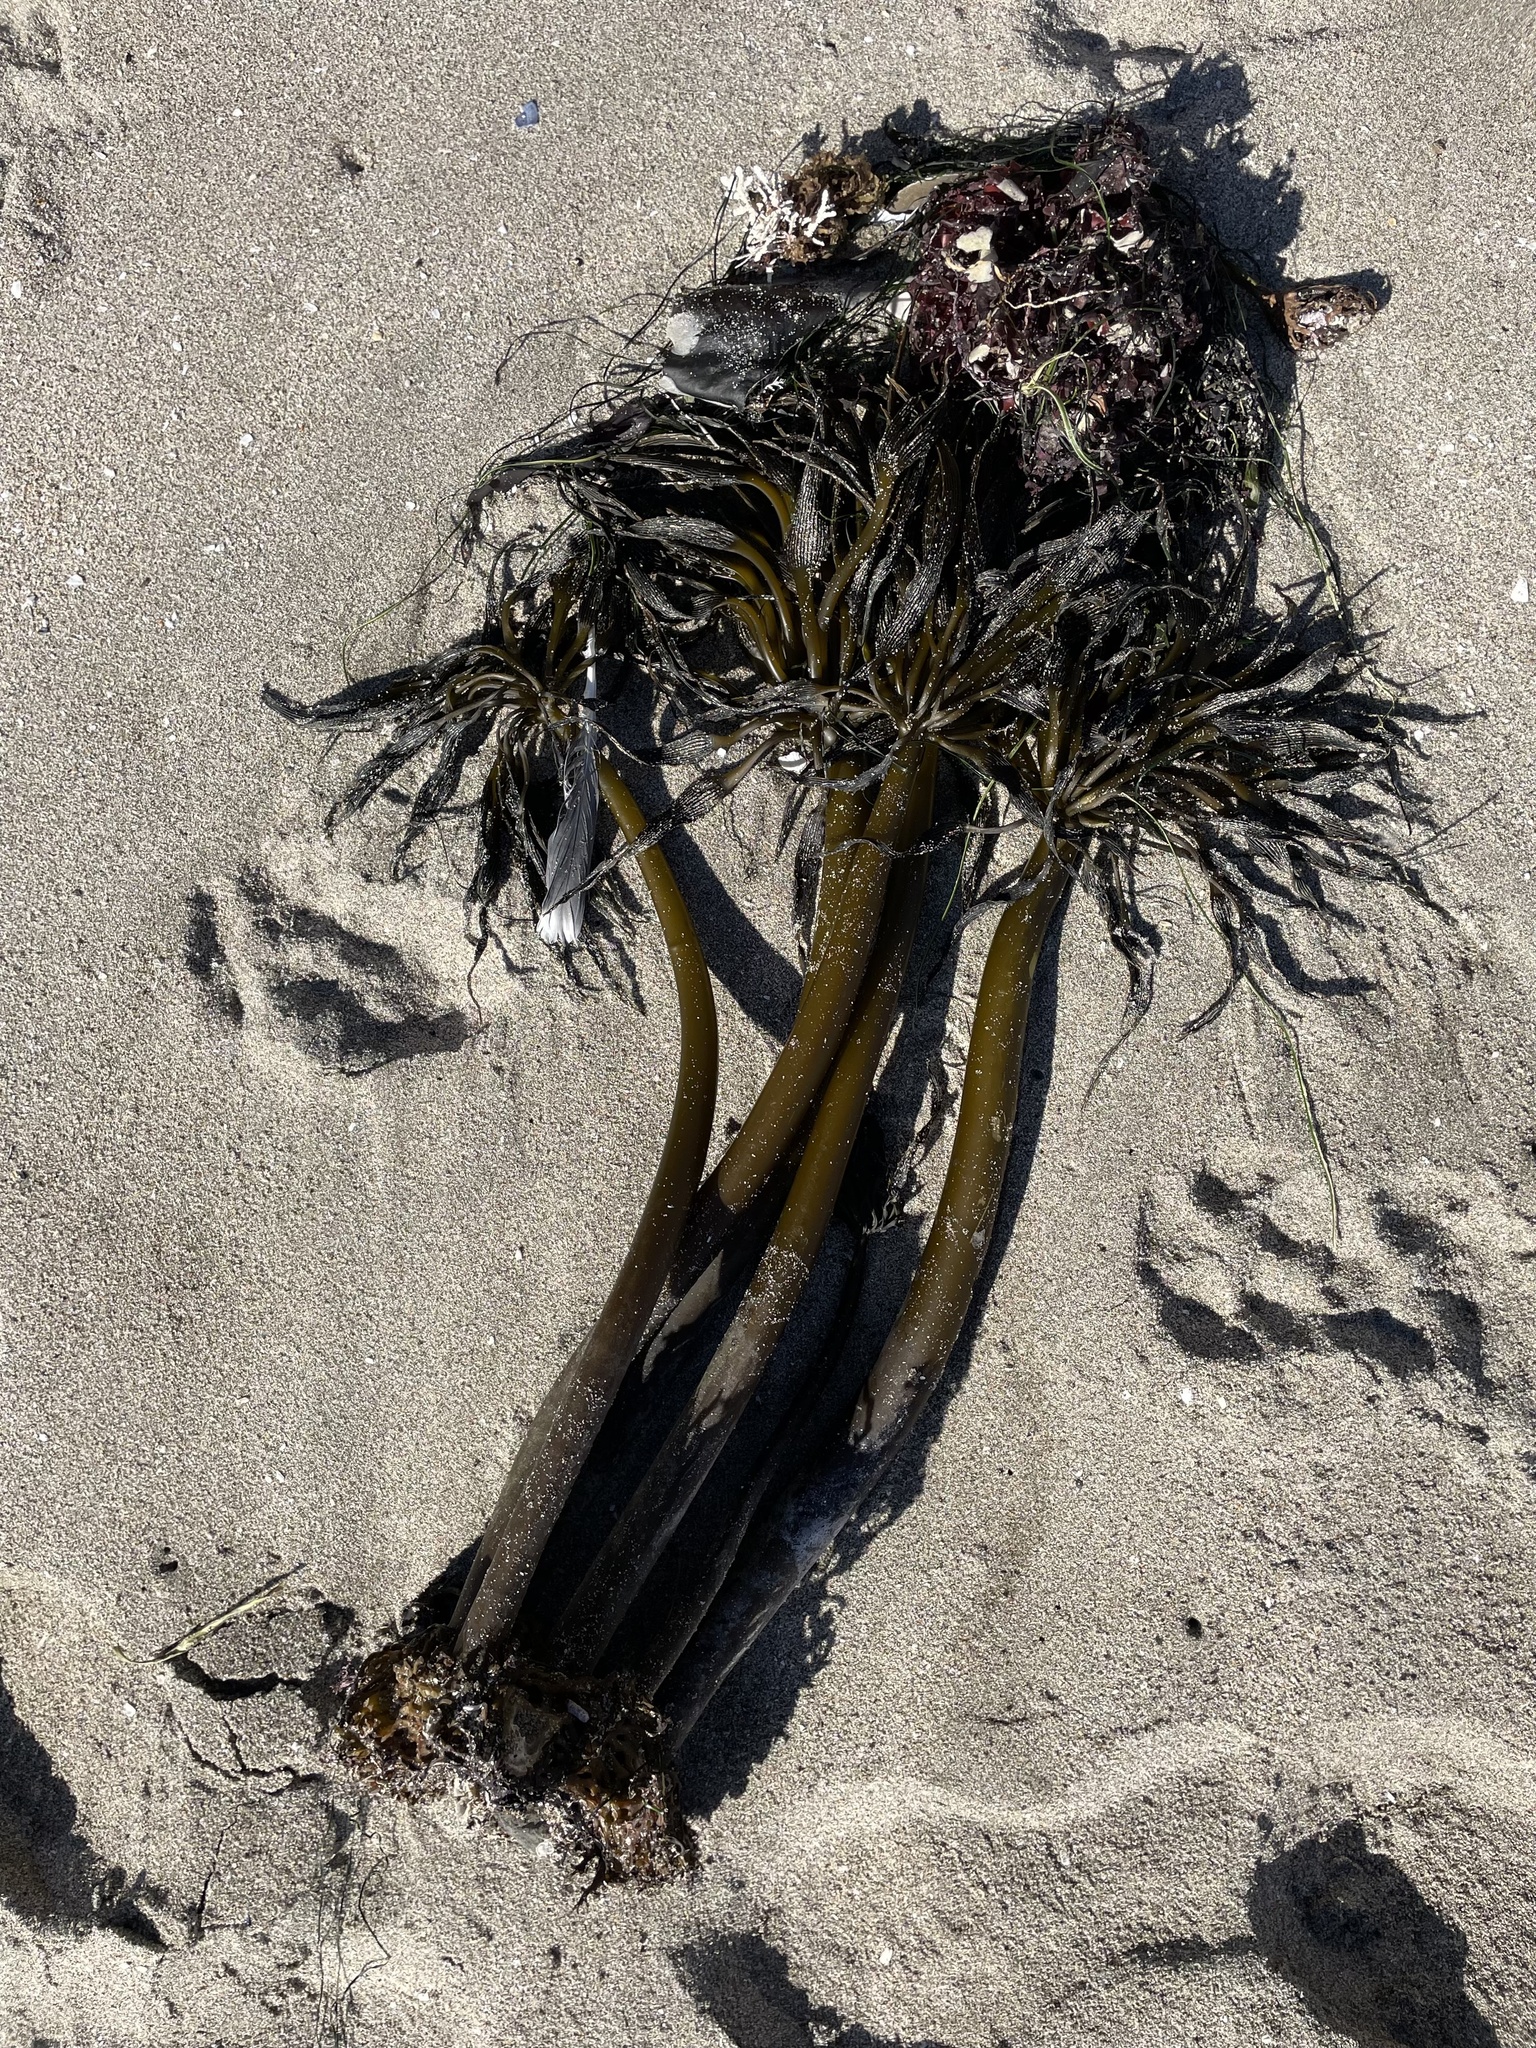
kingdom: Chromista
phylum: Ochrophyta
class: Phaeophyceae
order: Laminariales
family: Laminariaceae
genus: Postelsia
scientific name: Postelsia palmiformis
